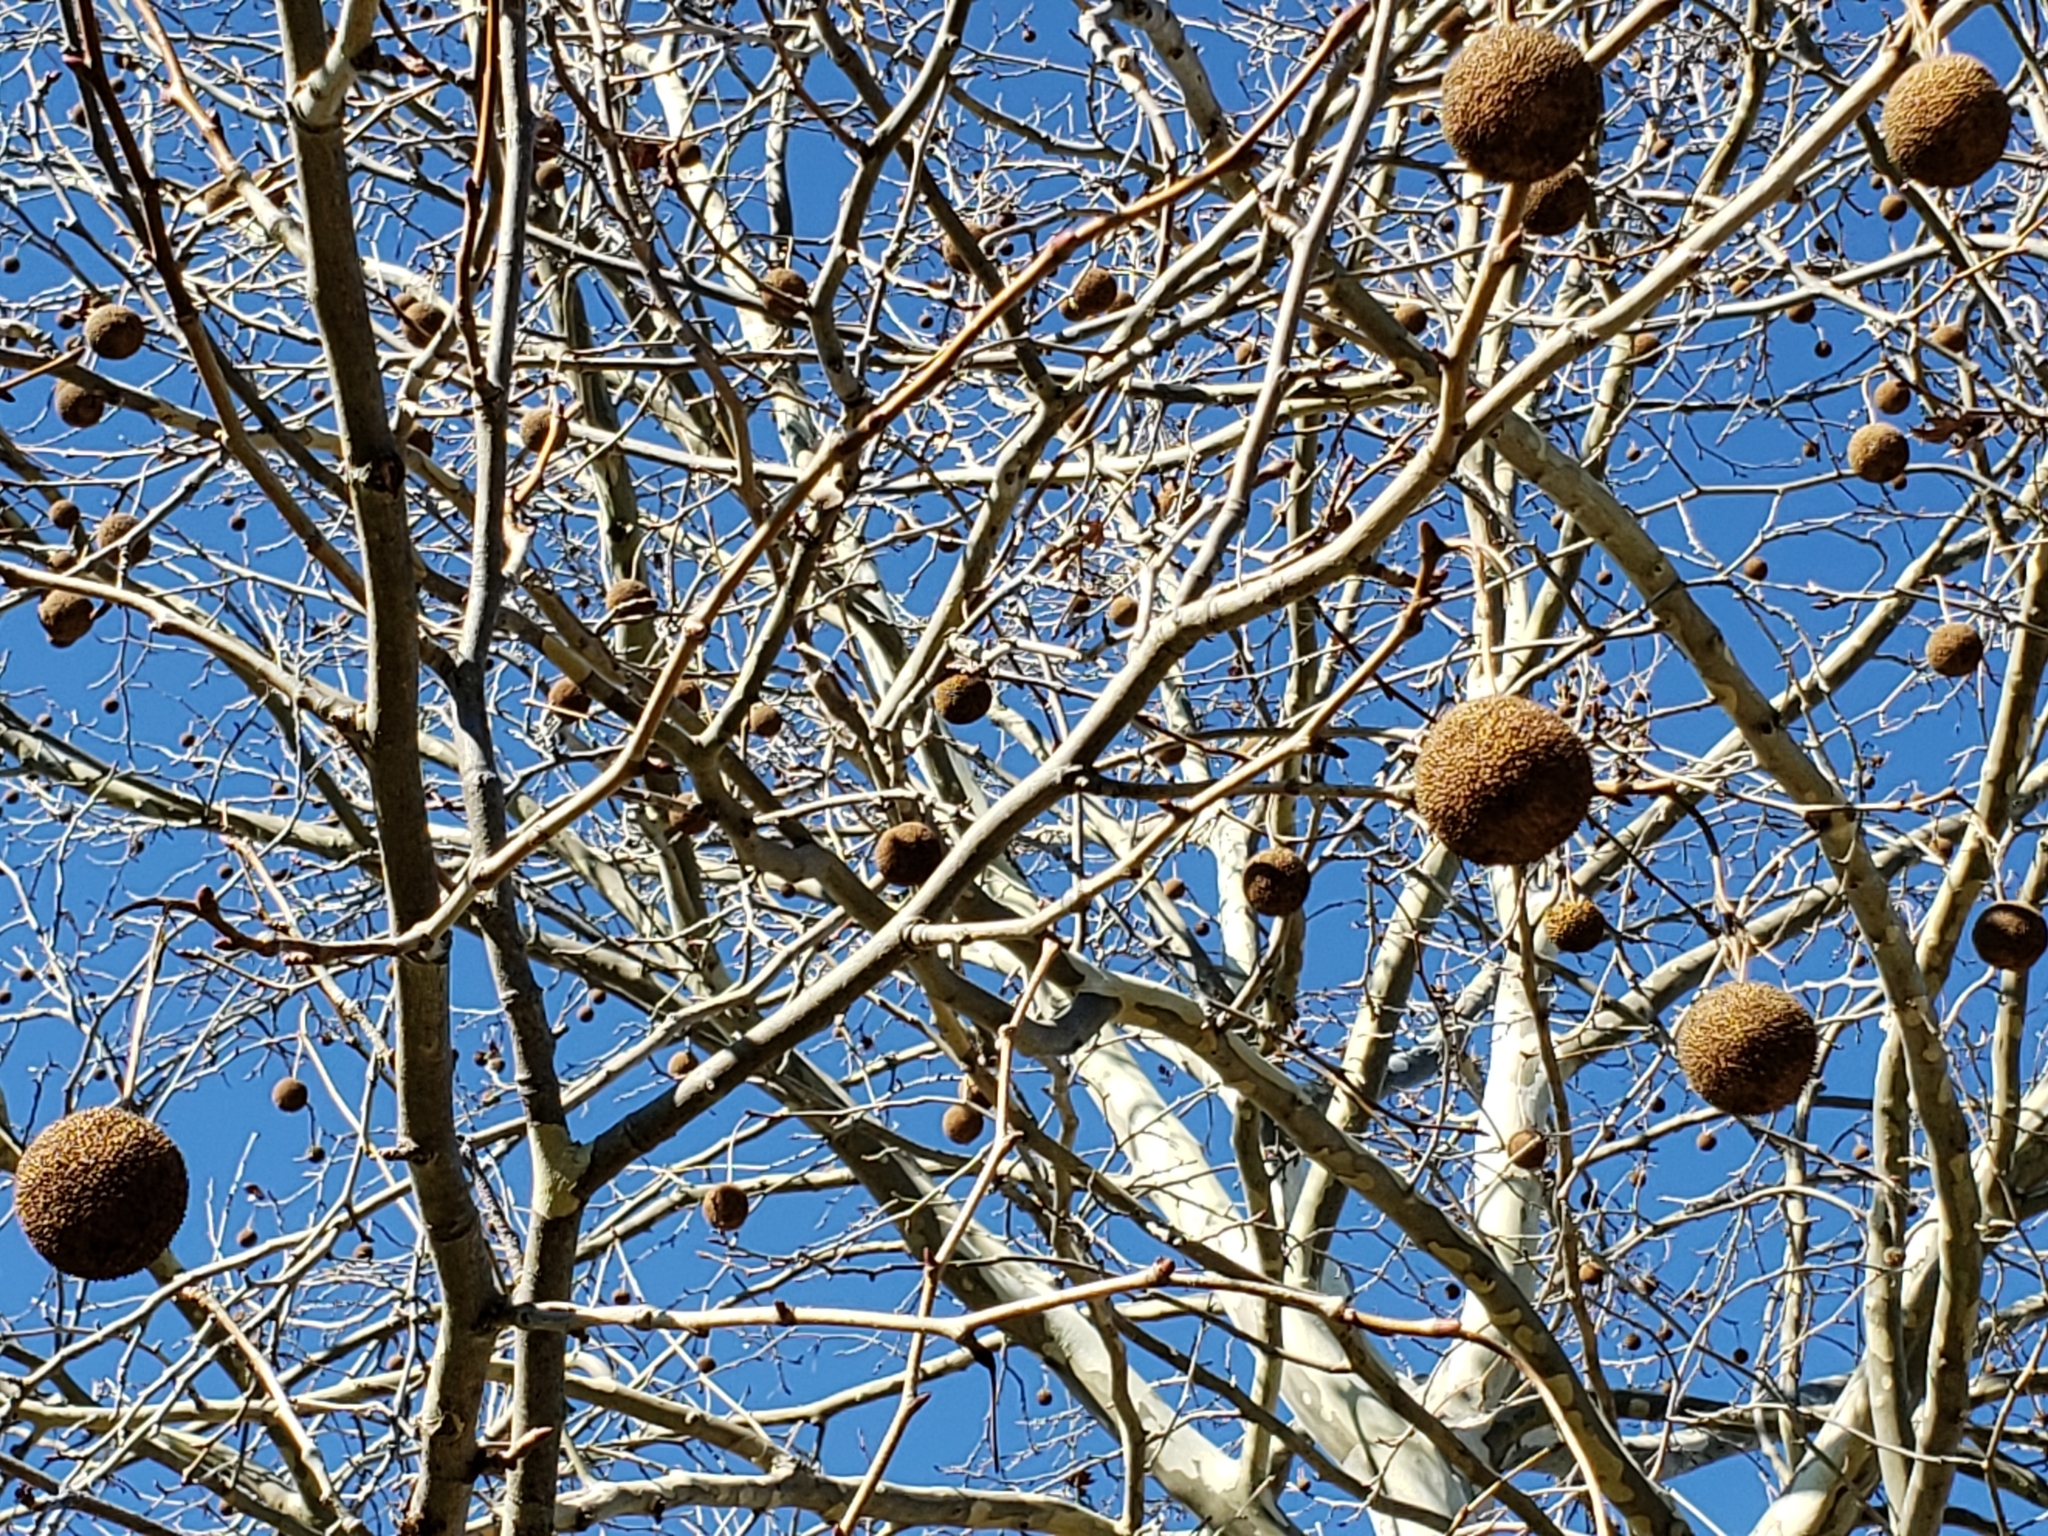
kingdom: Plantae
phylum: Tracheophyta
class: Magnoliopsida
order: Proteales
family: Platanaceae
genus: Platanus
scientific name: Platanus occidentalis
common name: American sycamore
